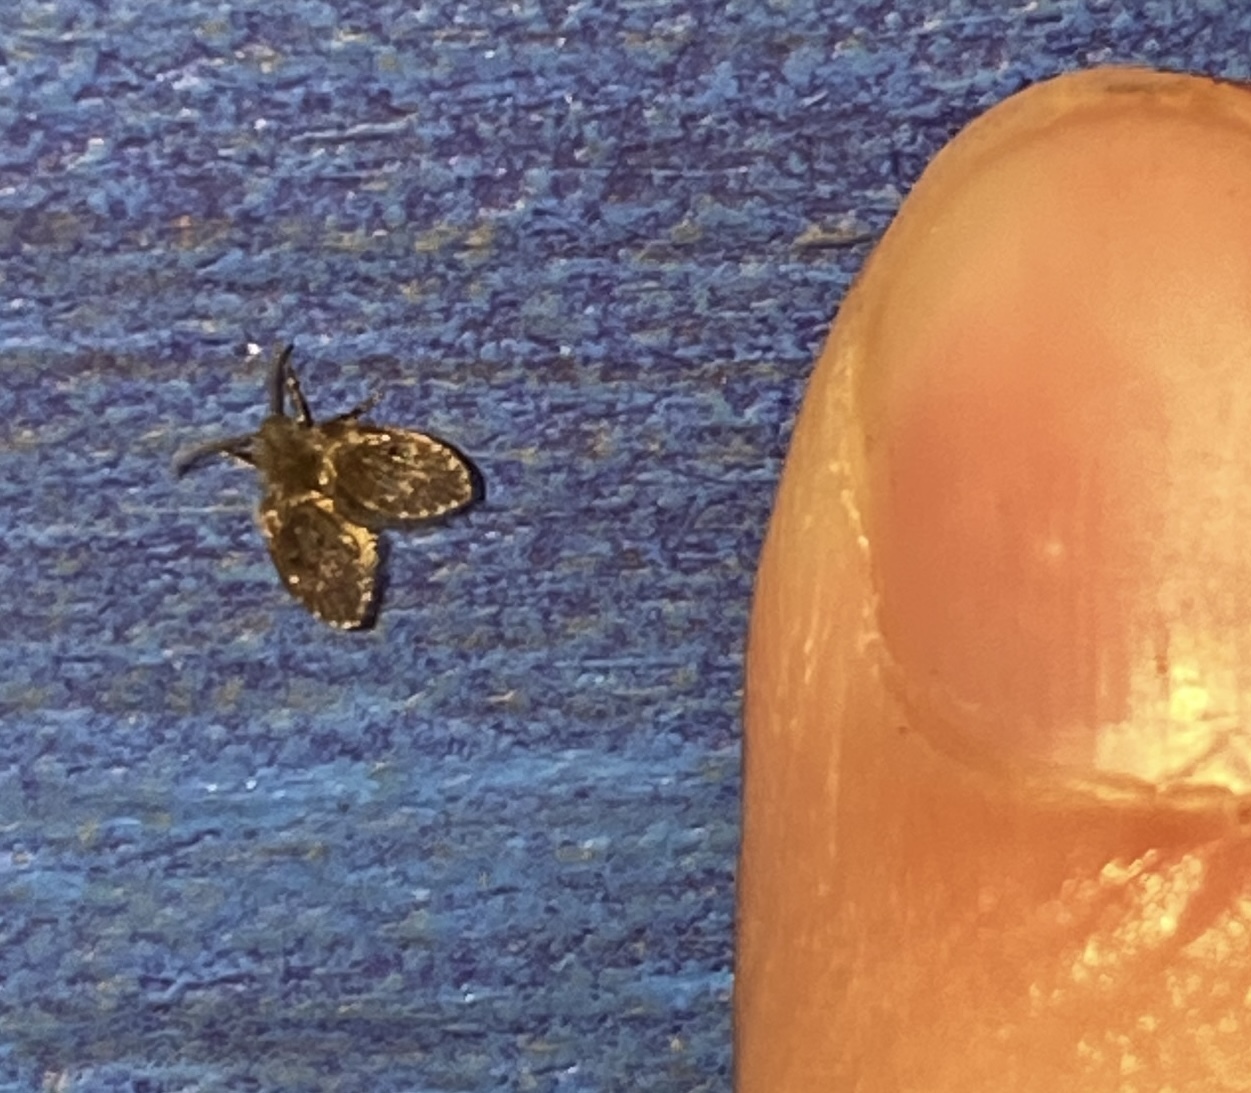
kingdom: Animalia
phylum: Arthropoda
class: Insecta
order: Diptera
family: Psychodidae
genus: Clogmia
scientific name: Clogmia albipunctatus
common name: White-spotted moth fly
